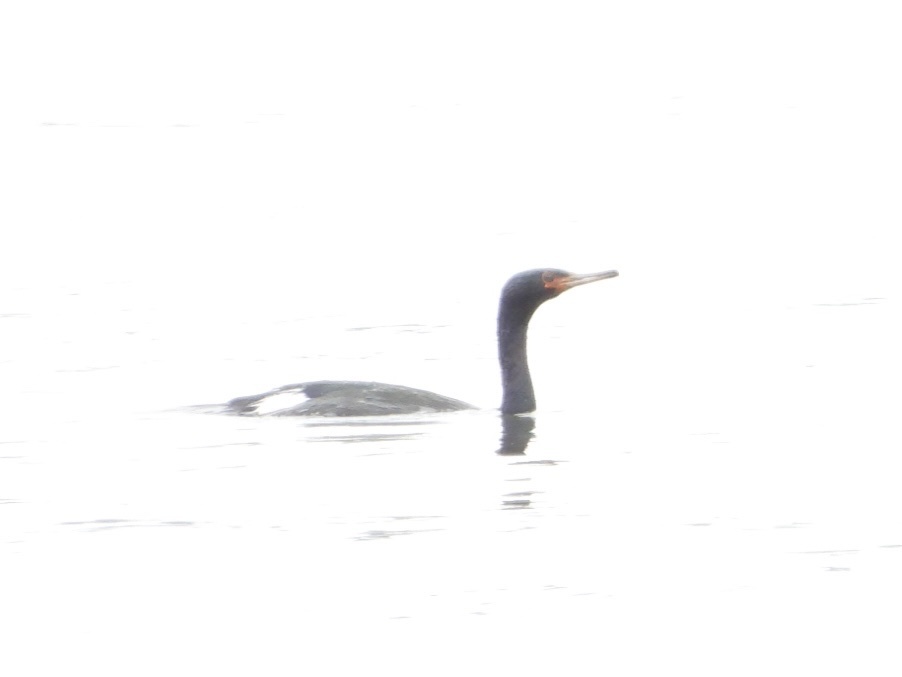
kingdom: Animalia
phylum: Chordata
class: Aves
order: Suliformes
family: Phalacrocoracidae
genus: Phalacrocorax
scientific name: Phalacrocorax pelagicus
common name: Pelagic cormorant
